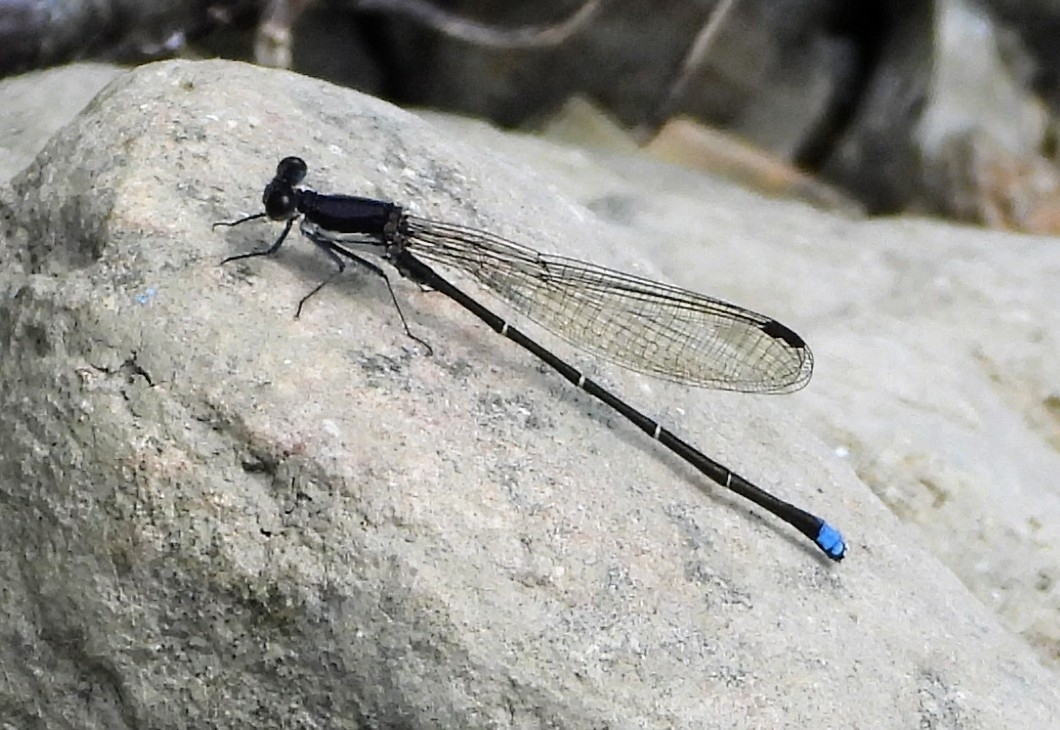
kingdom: Animalia
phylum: Arthropoda
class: Insecta
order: Odonata
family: Coenagrionidae
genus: Argia
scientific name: Argia tibialis
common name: Blue-tipped dancer
